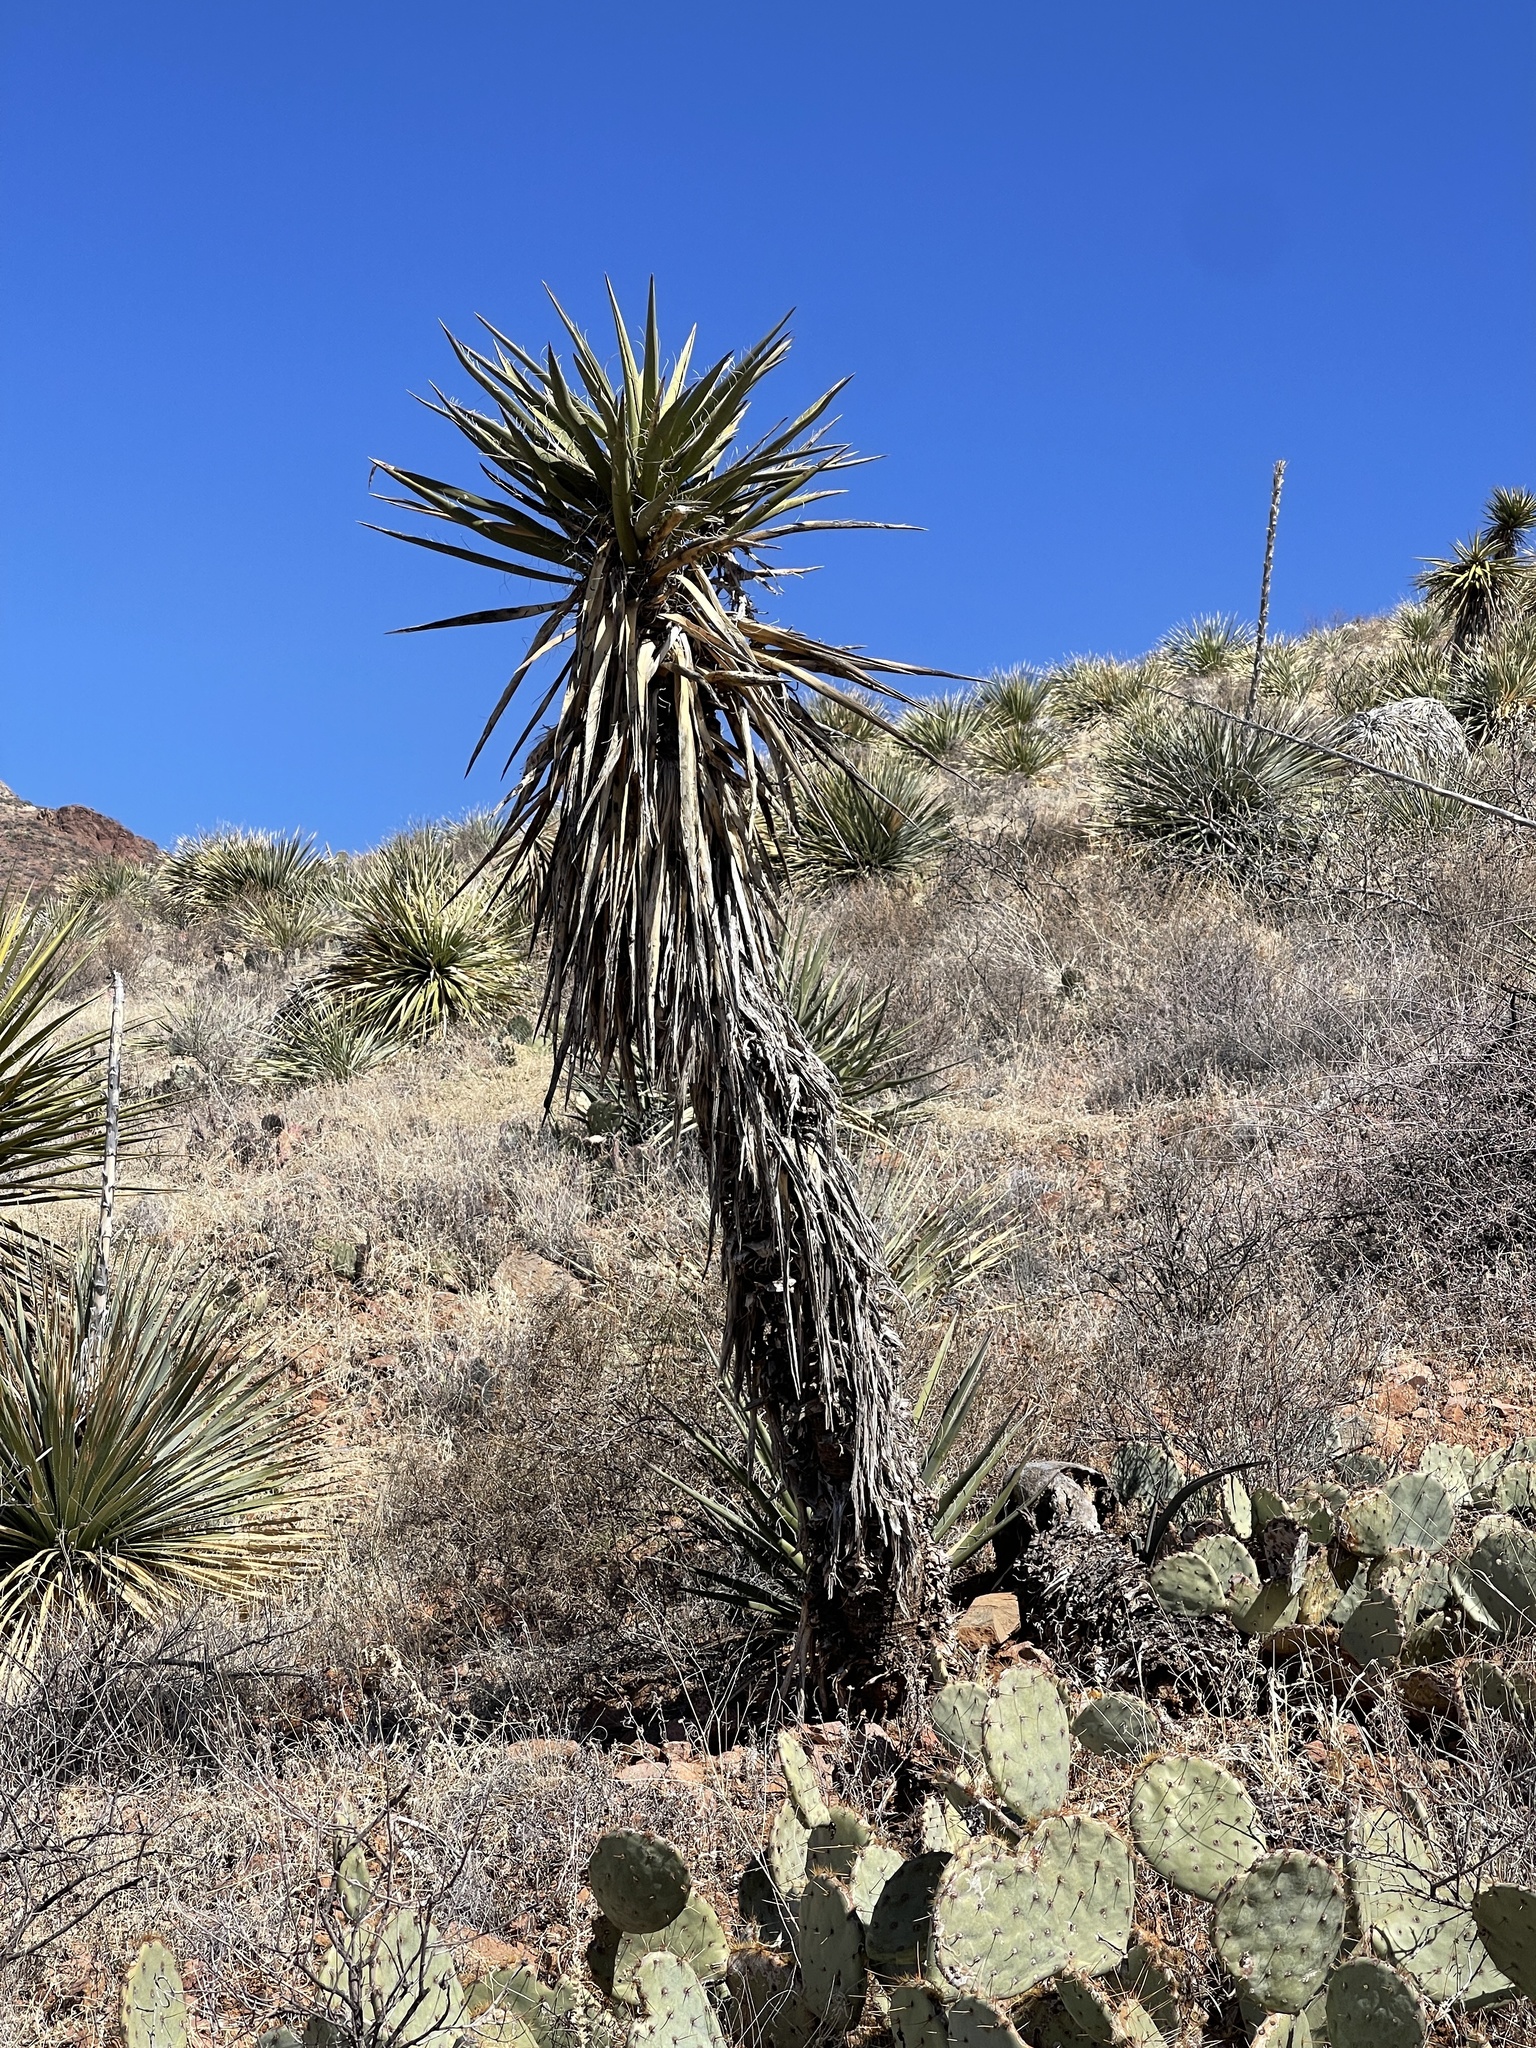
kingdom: Plantae
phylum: Tracheophyta
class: Liliopsida
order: Asparagales
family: Asparagaceae
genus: Yucca
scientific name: Yucca treculiana
